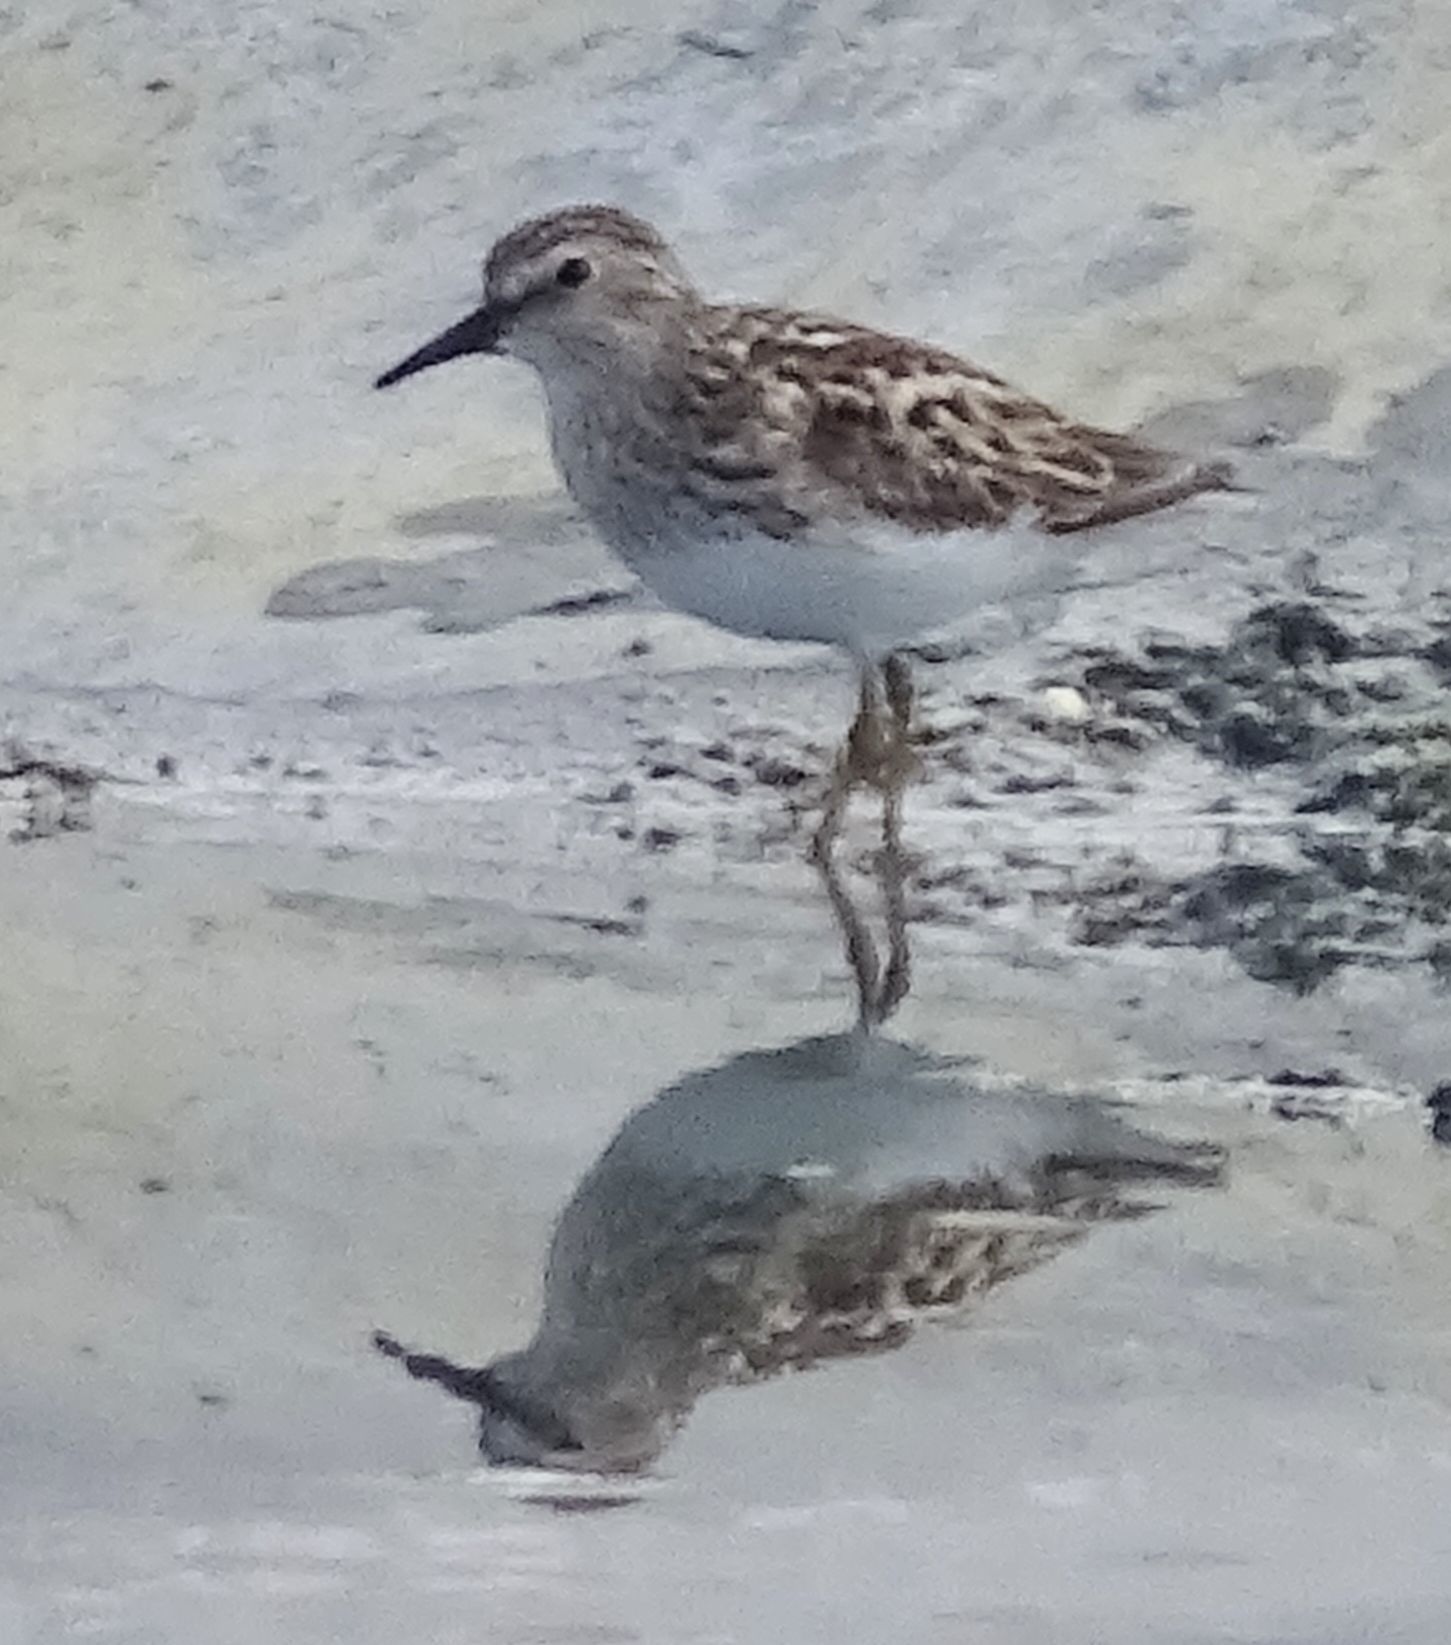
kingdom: Animalia
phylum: Chordata
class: Aves
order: Charadriiformes
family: Scolopacidae
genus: Calidris
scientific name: Calidris minutilla
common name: Least sandpiper
